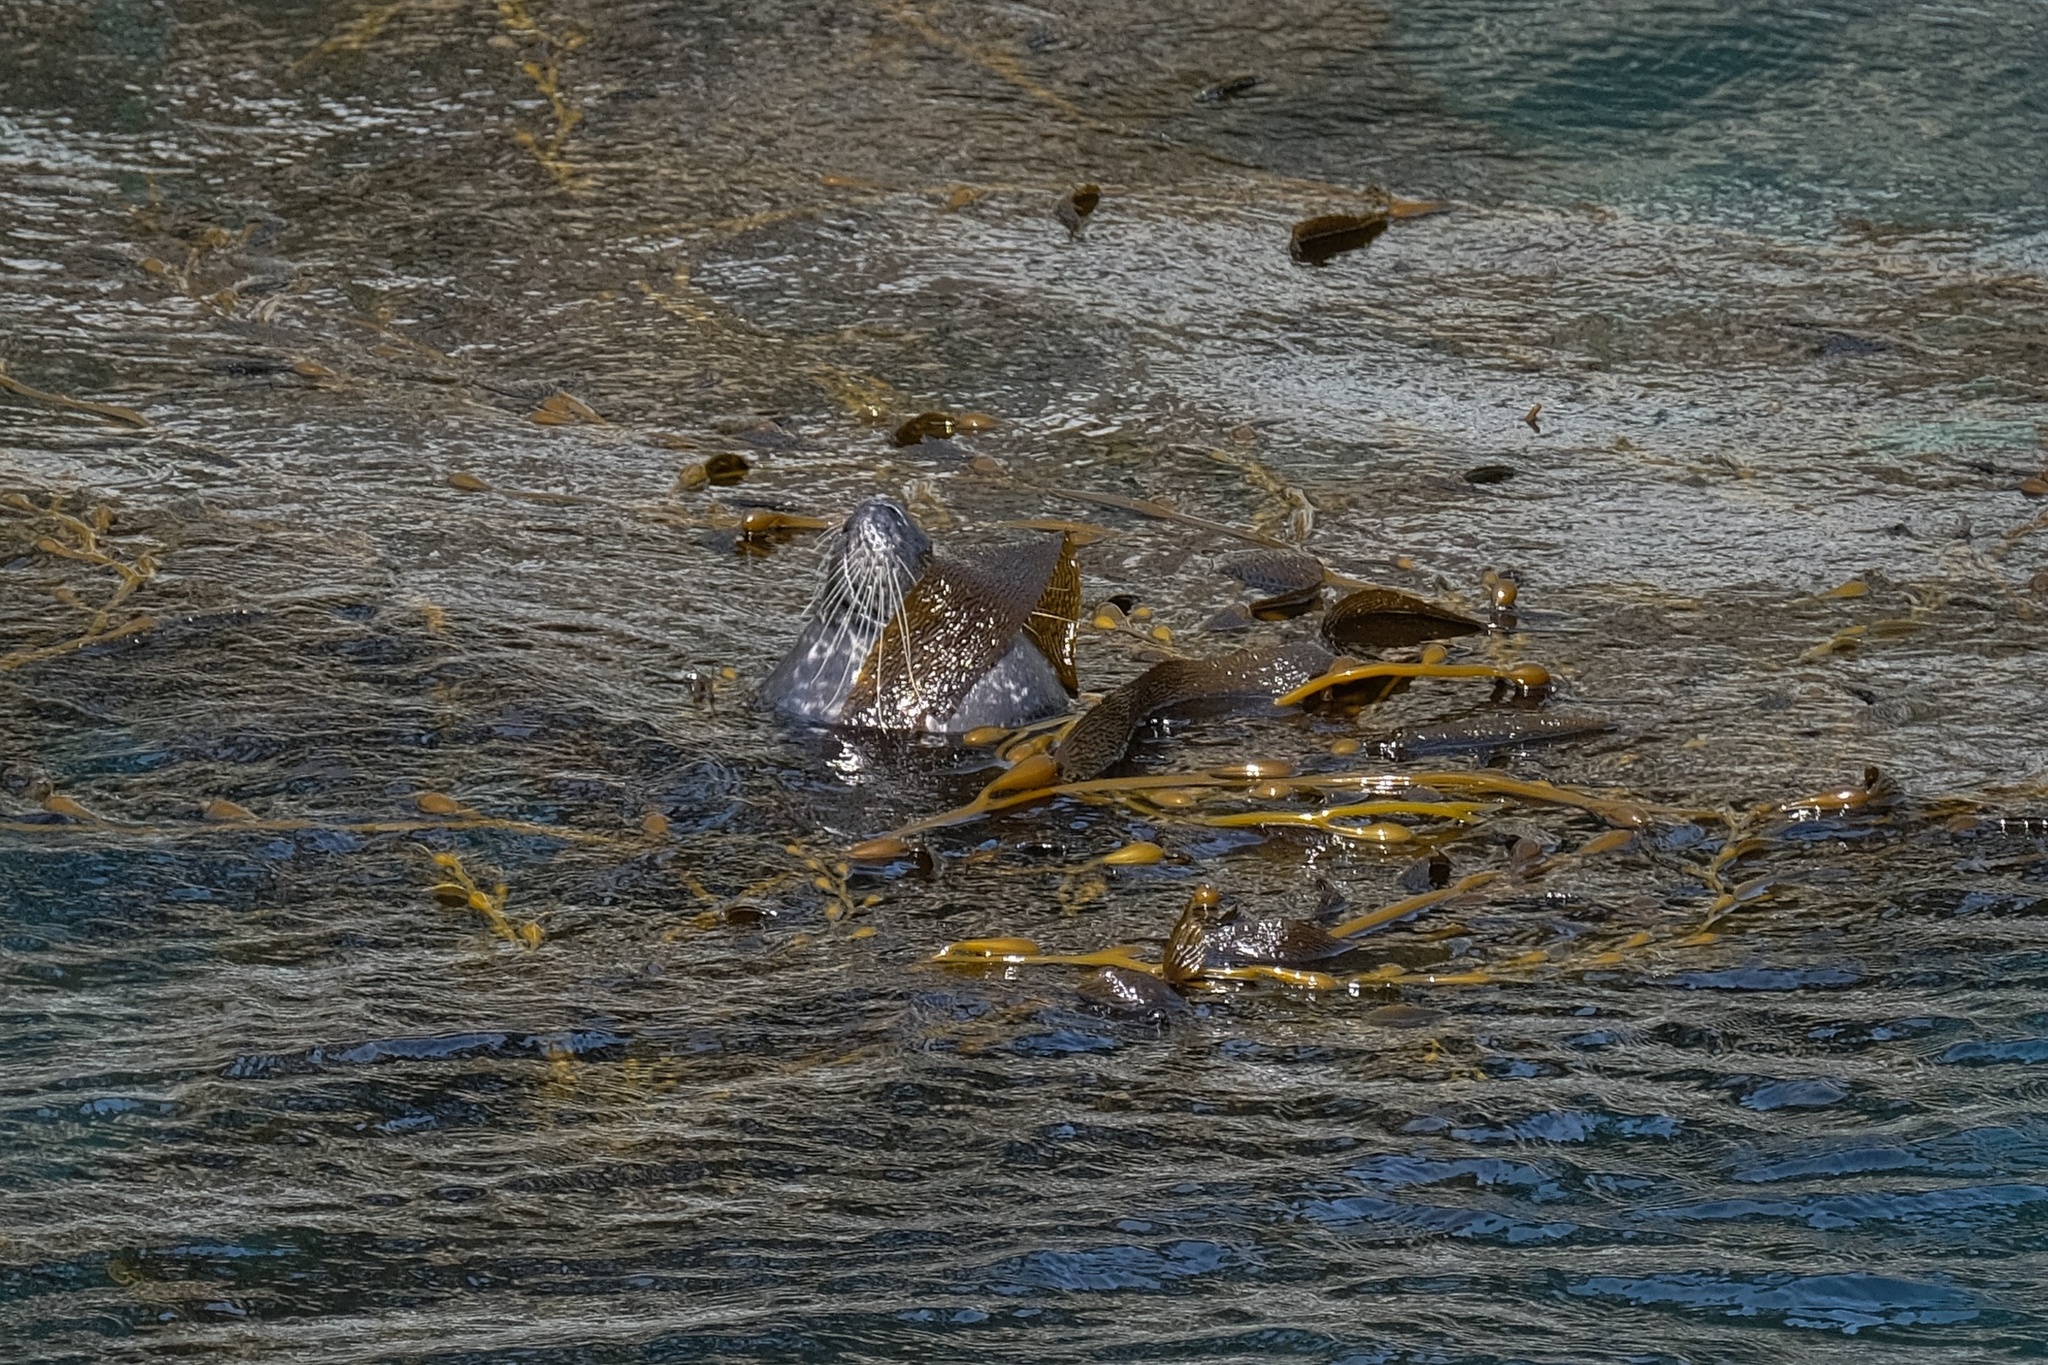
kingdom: Animalia
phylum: Chordata
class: Mammalia
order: Carnivora
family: Phocidae
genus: Phoca
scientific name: Phoca vitulina
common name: Harbor seal
